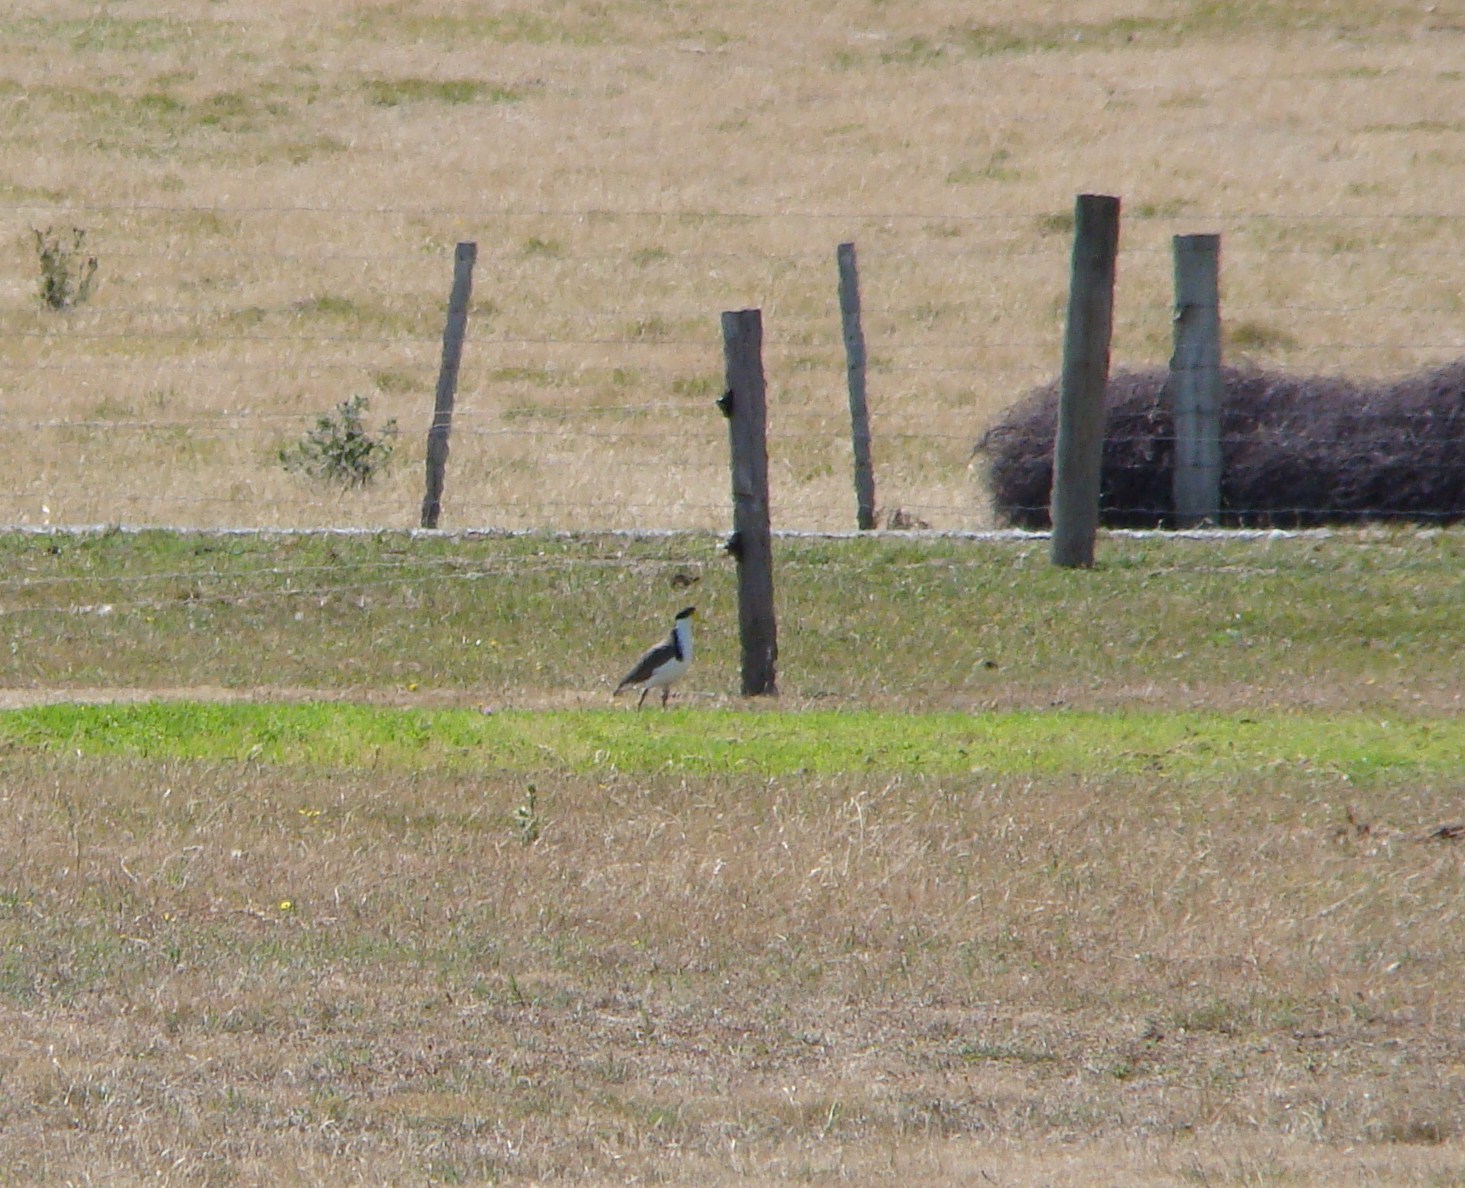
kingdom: Animalia
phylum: Chordata
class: Aves
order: Charadriiformes
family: Charadriidae
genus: Vanellus
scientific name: Vanellus miles
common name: Masked lapwing
